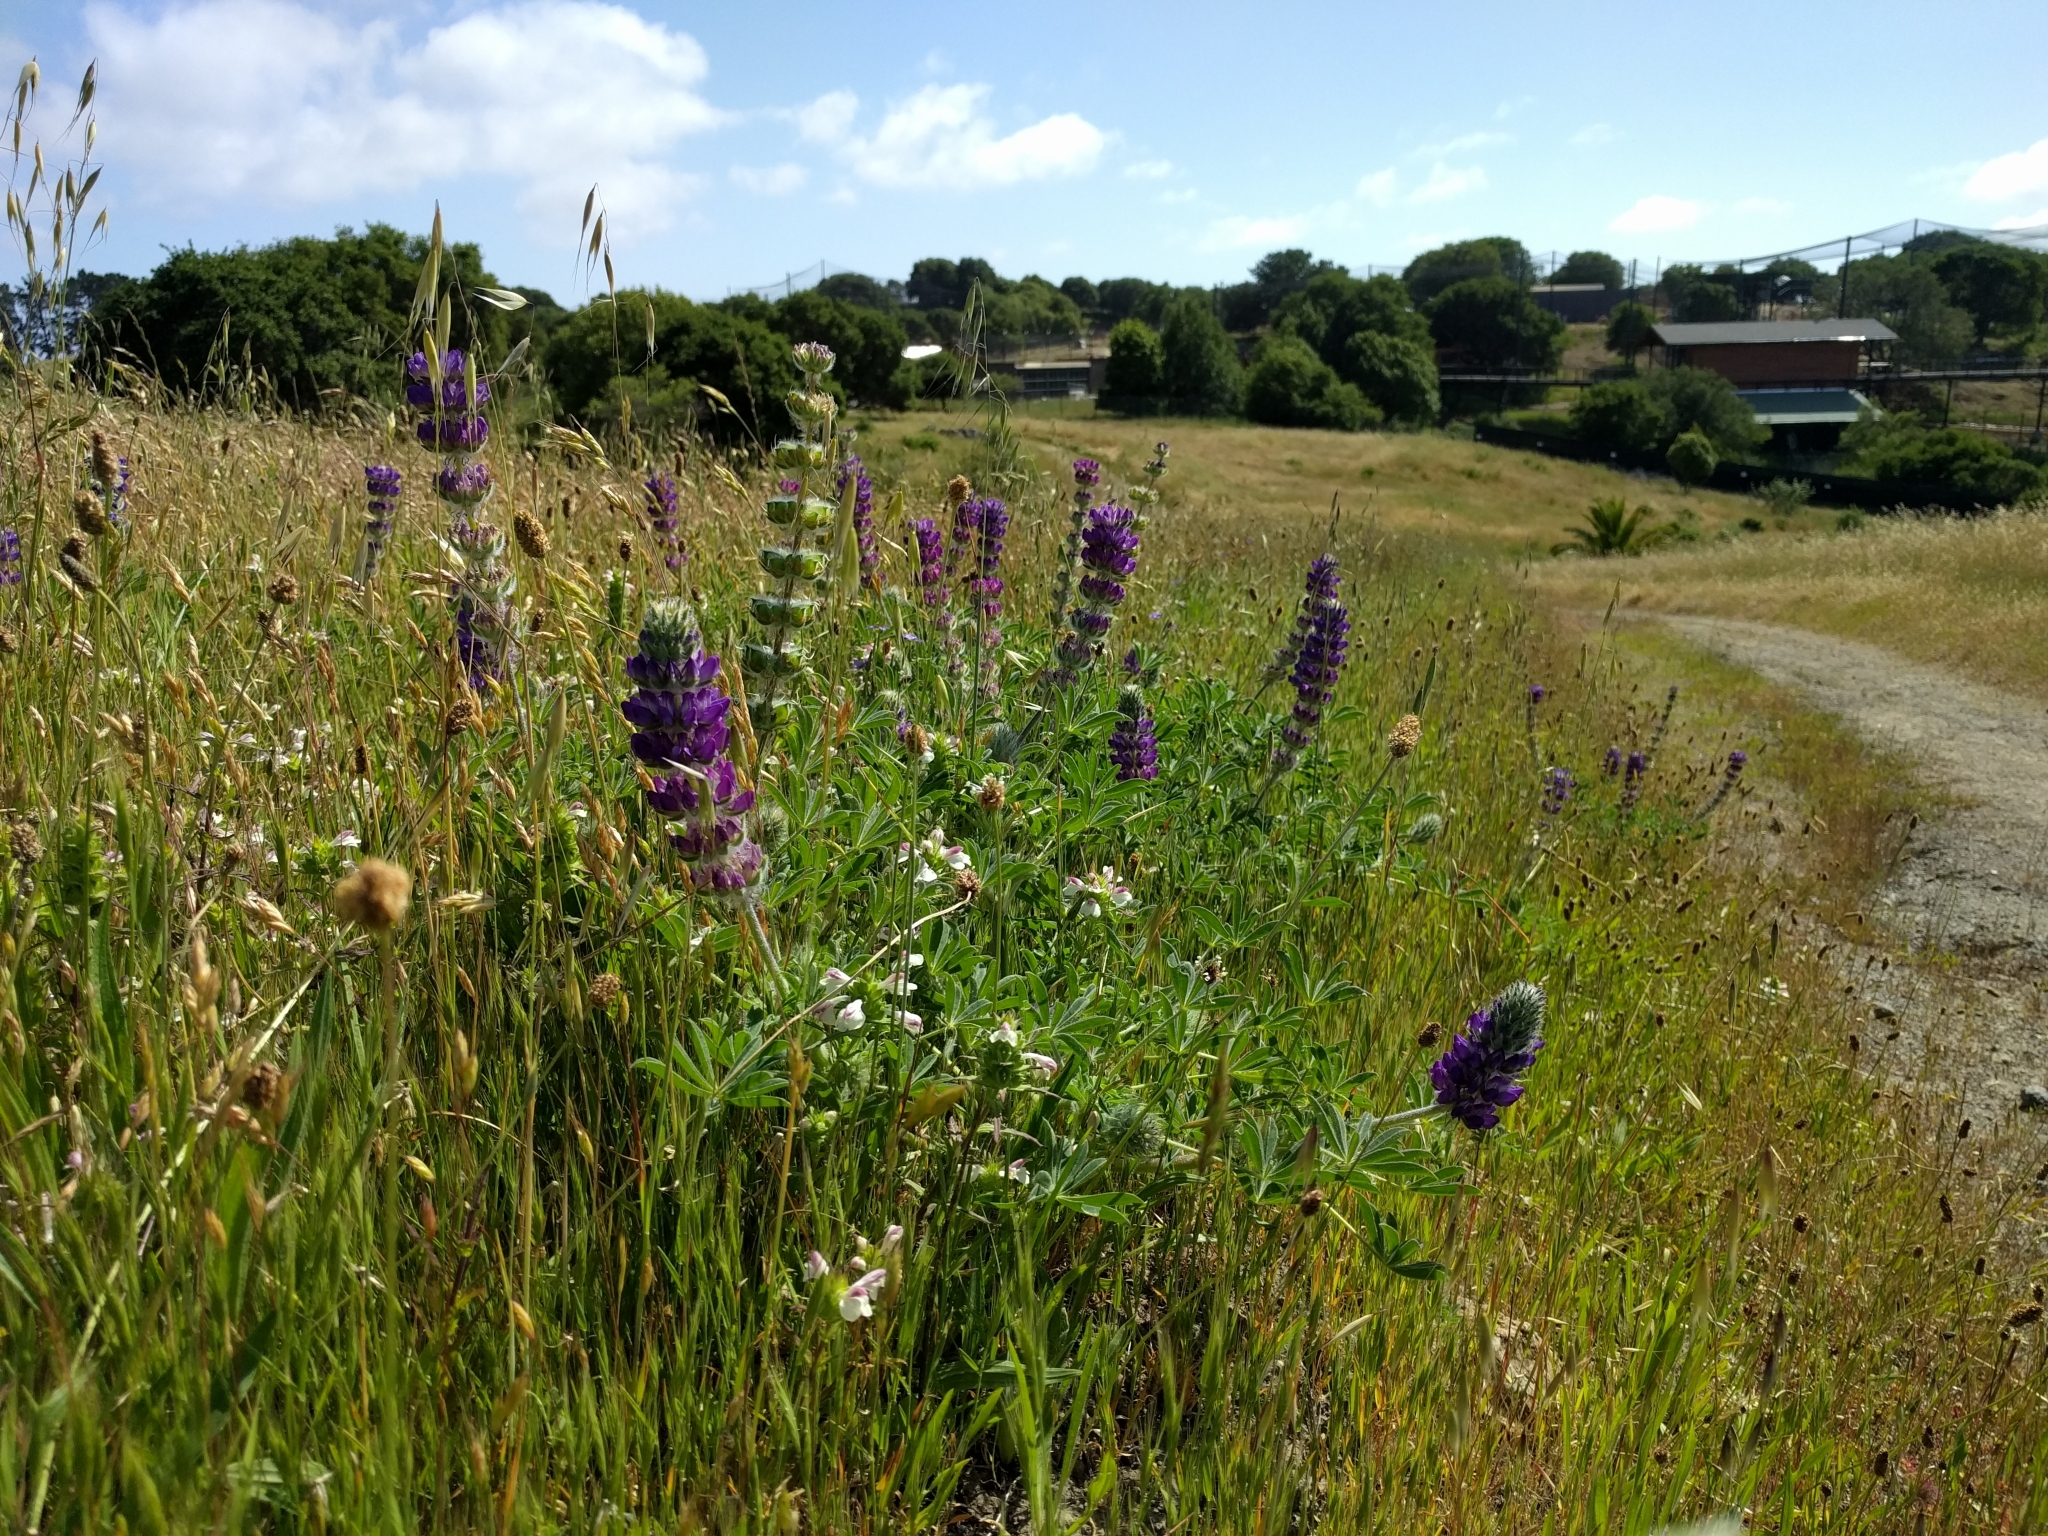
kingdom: Plantae
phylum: Tracheophyta
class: Magnoliopsida
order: Fabales
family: Fabaceae
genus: Lupinus
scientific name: Lupinus microcarpus
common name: Chick lupine
